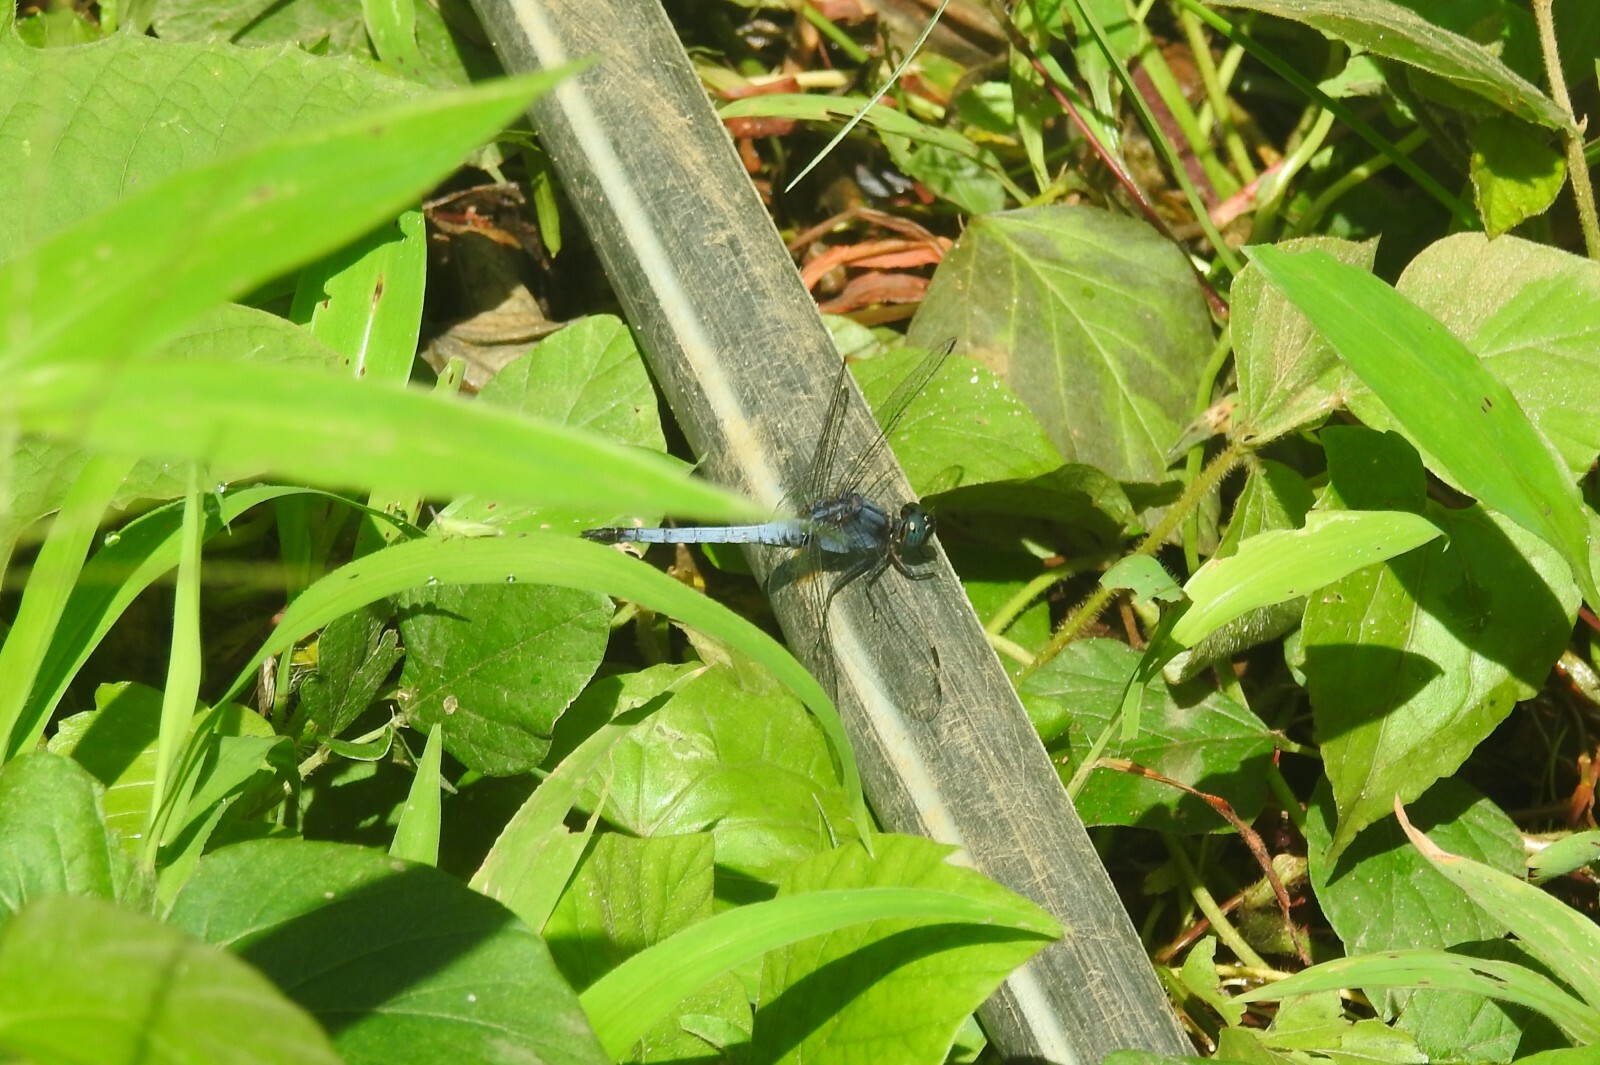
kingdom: Animalia
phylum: Arthropoda
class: Insecta
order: Odonata
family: Libellulidae
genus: Orthetrum
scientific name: Orthetrum glaucum
